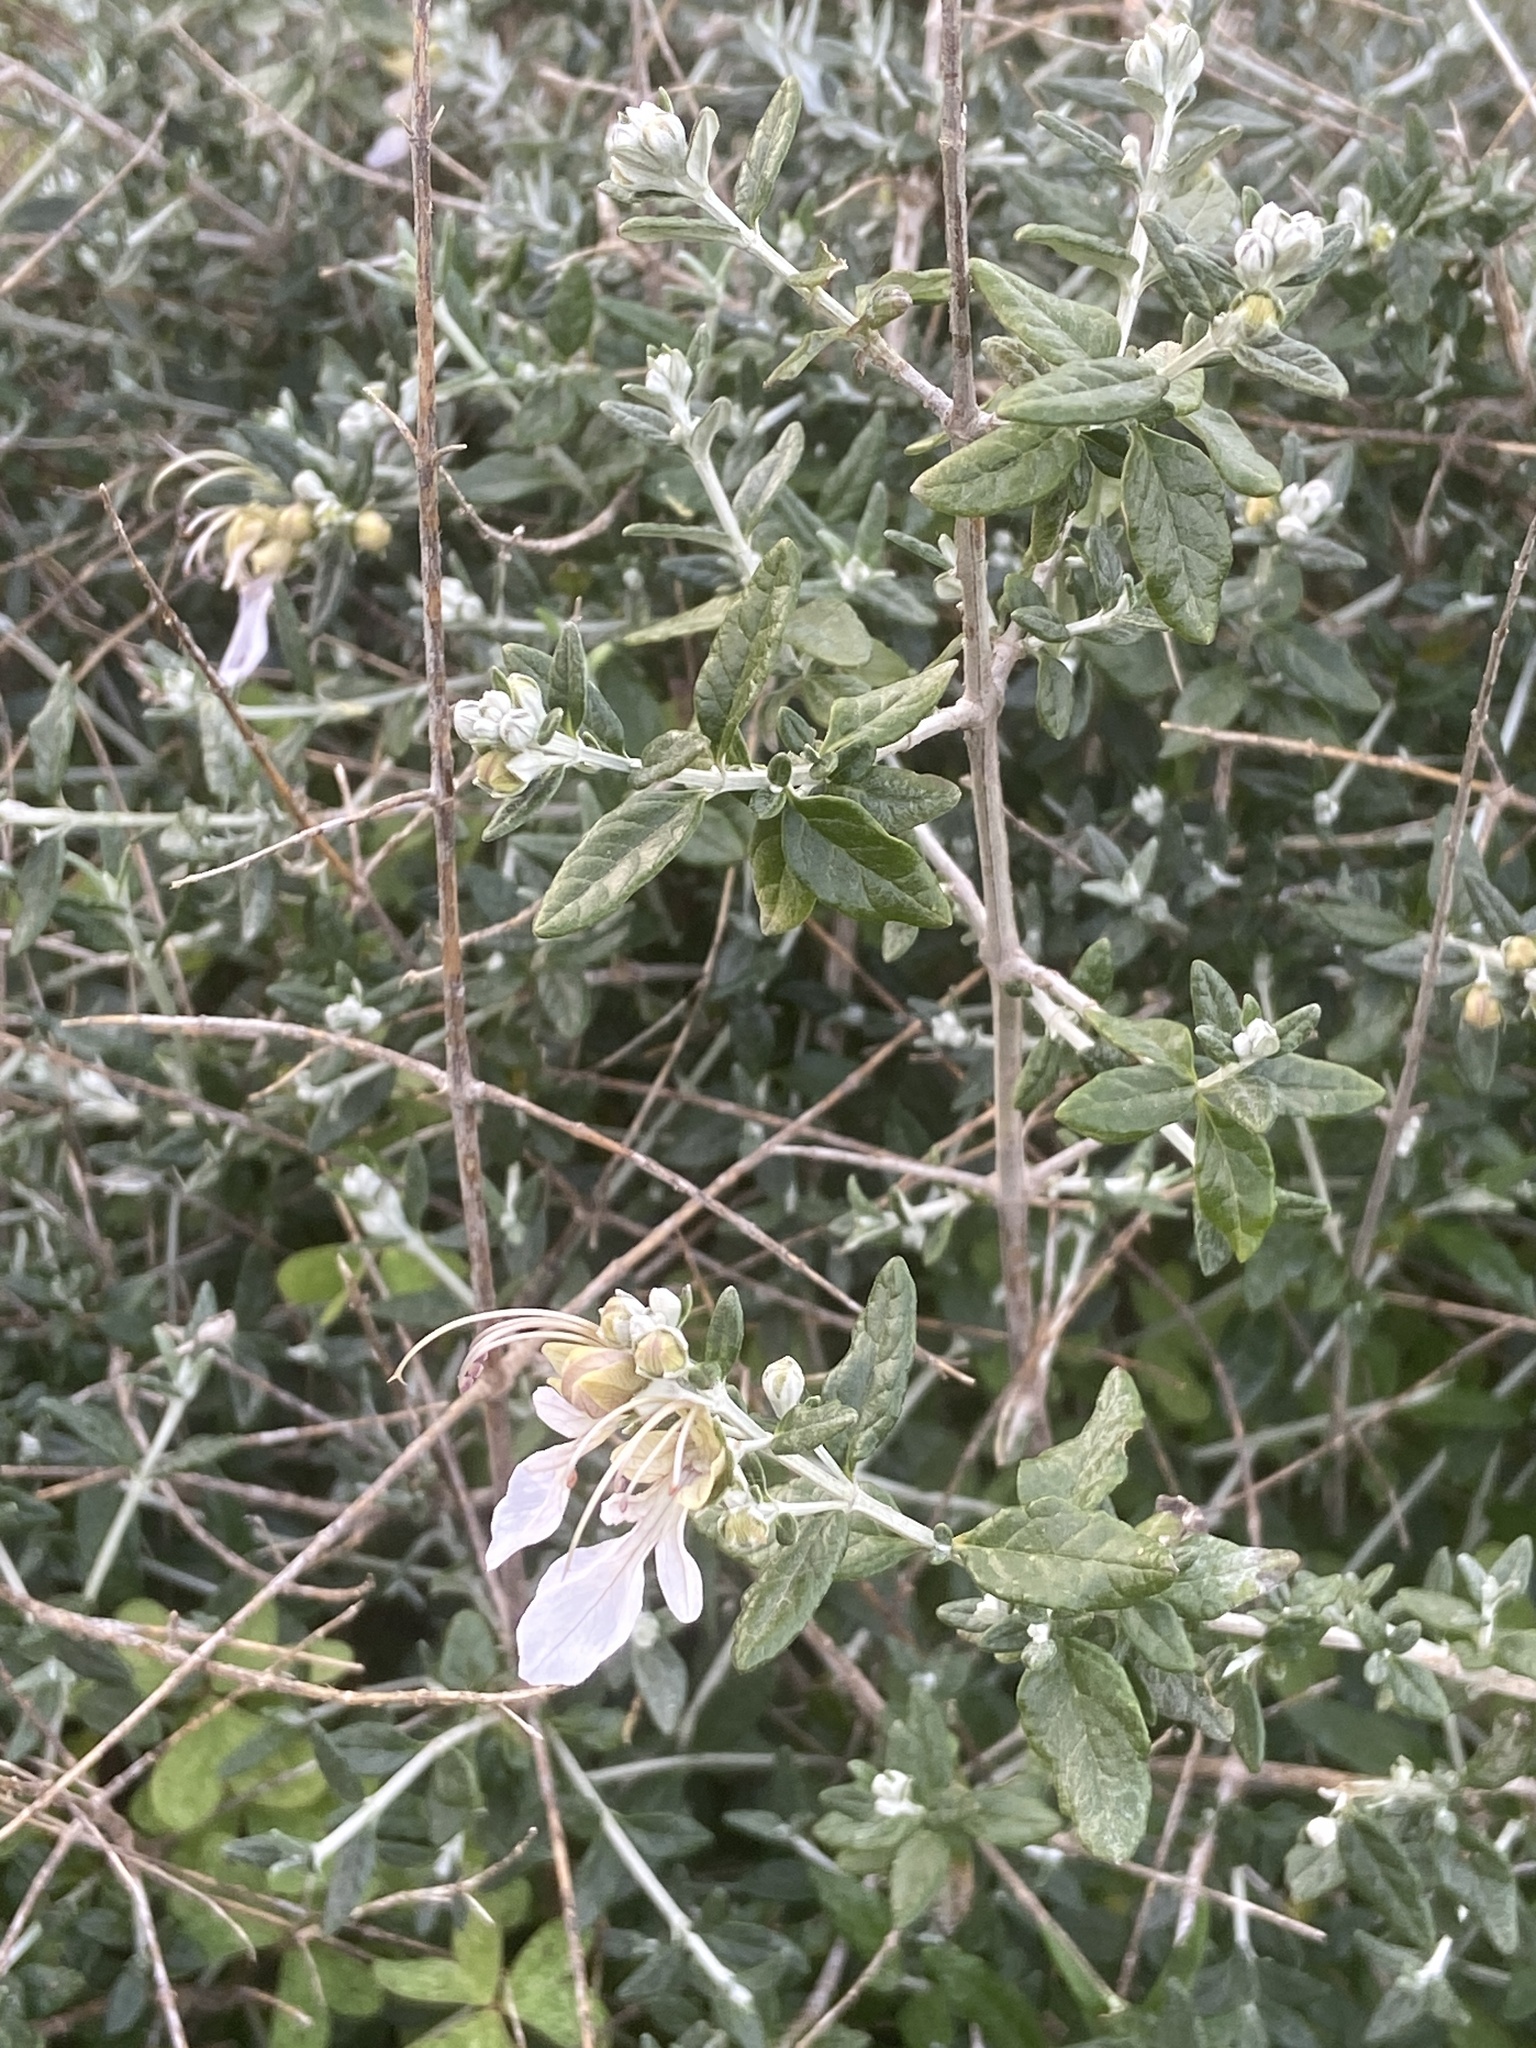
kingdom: Plantae
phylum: Tracheophyta
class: Magnoliopsida
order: Lamiales
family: Lamiaceae
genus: Teucrium
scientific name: Teucrium fruticans
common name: Shrubby germander
